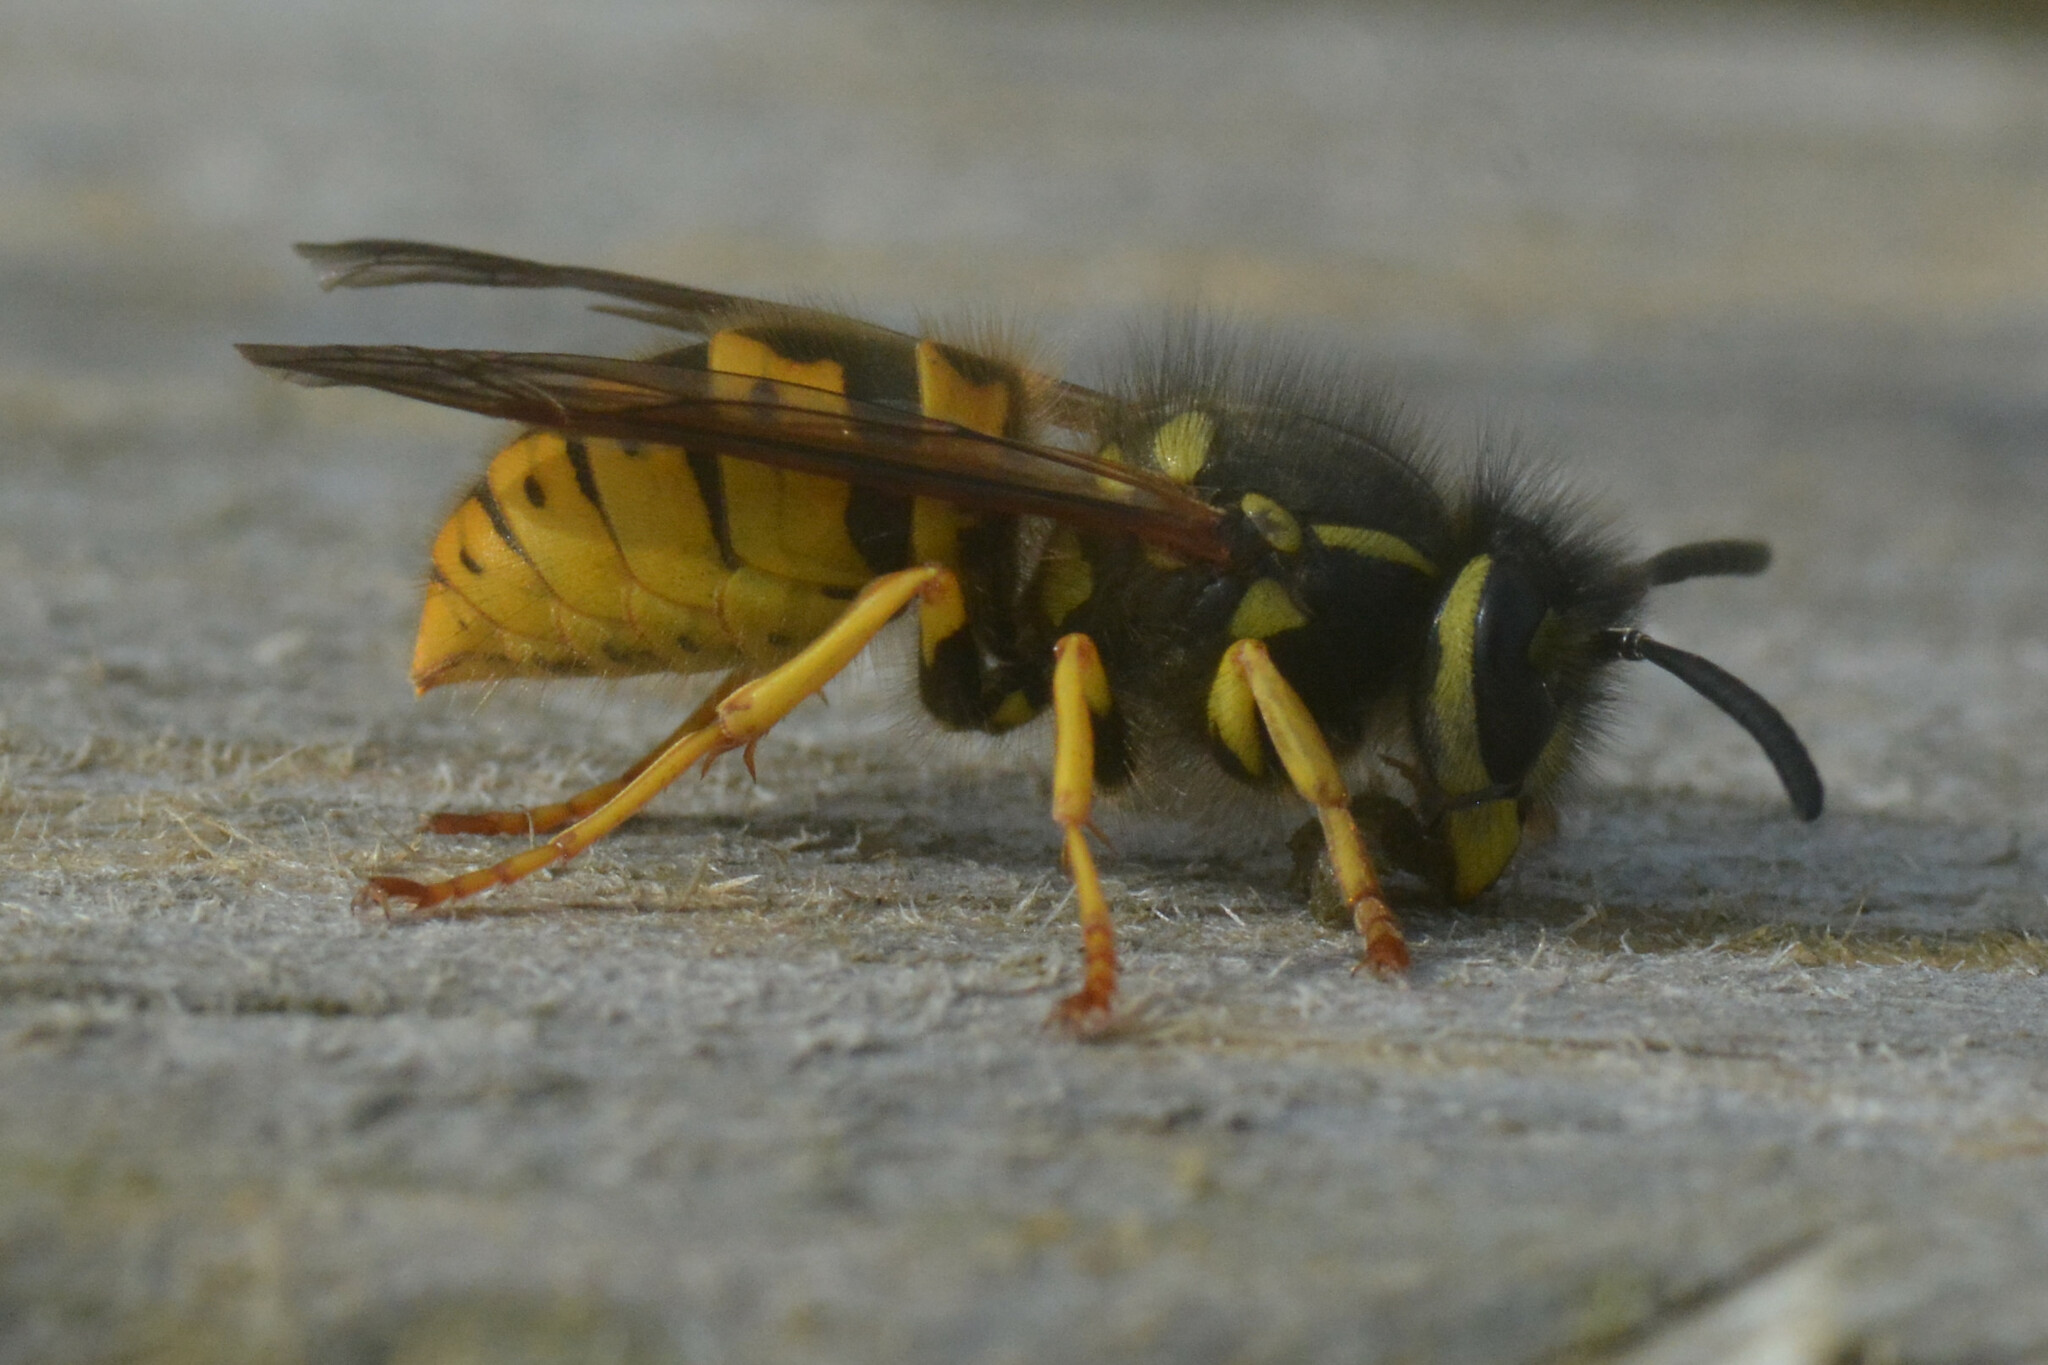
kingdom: Animalia
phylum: Arthropoda
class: Insecta
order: Hymenoptera
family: Vespidae
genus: Vespula
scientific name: Vespula germanica
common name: German wasp
